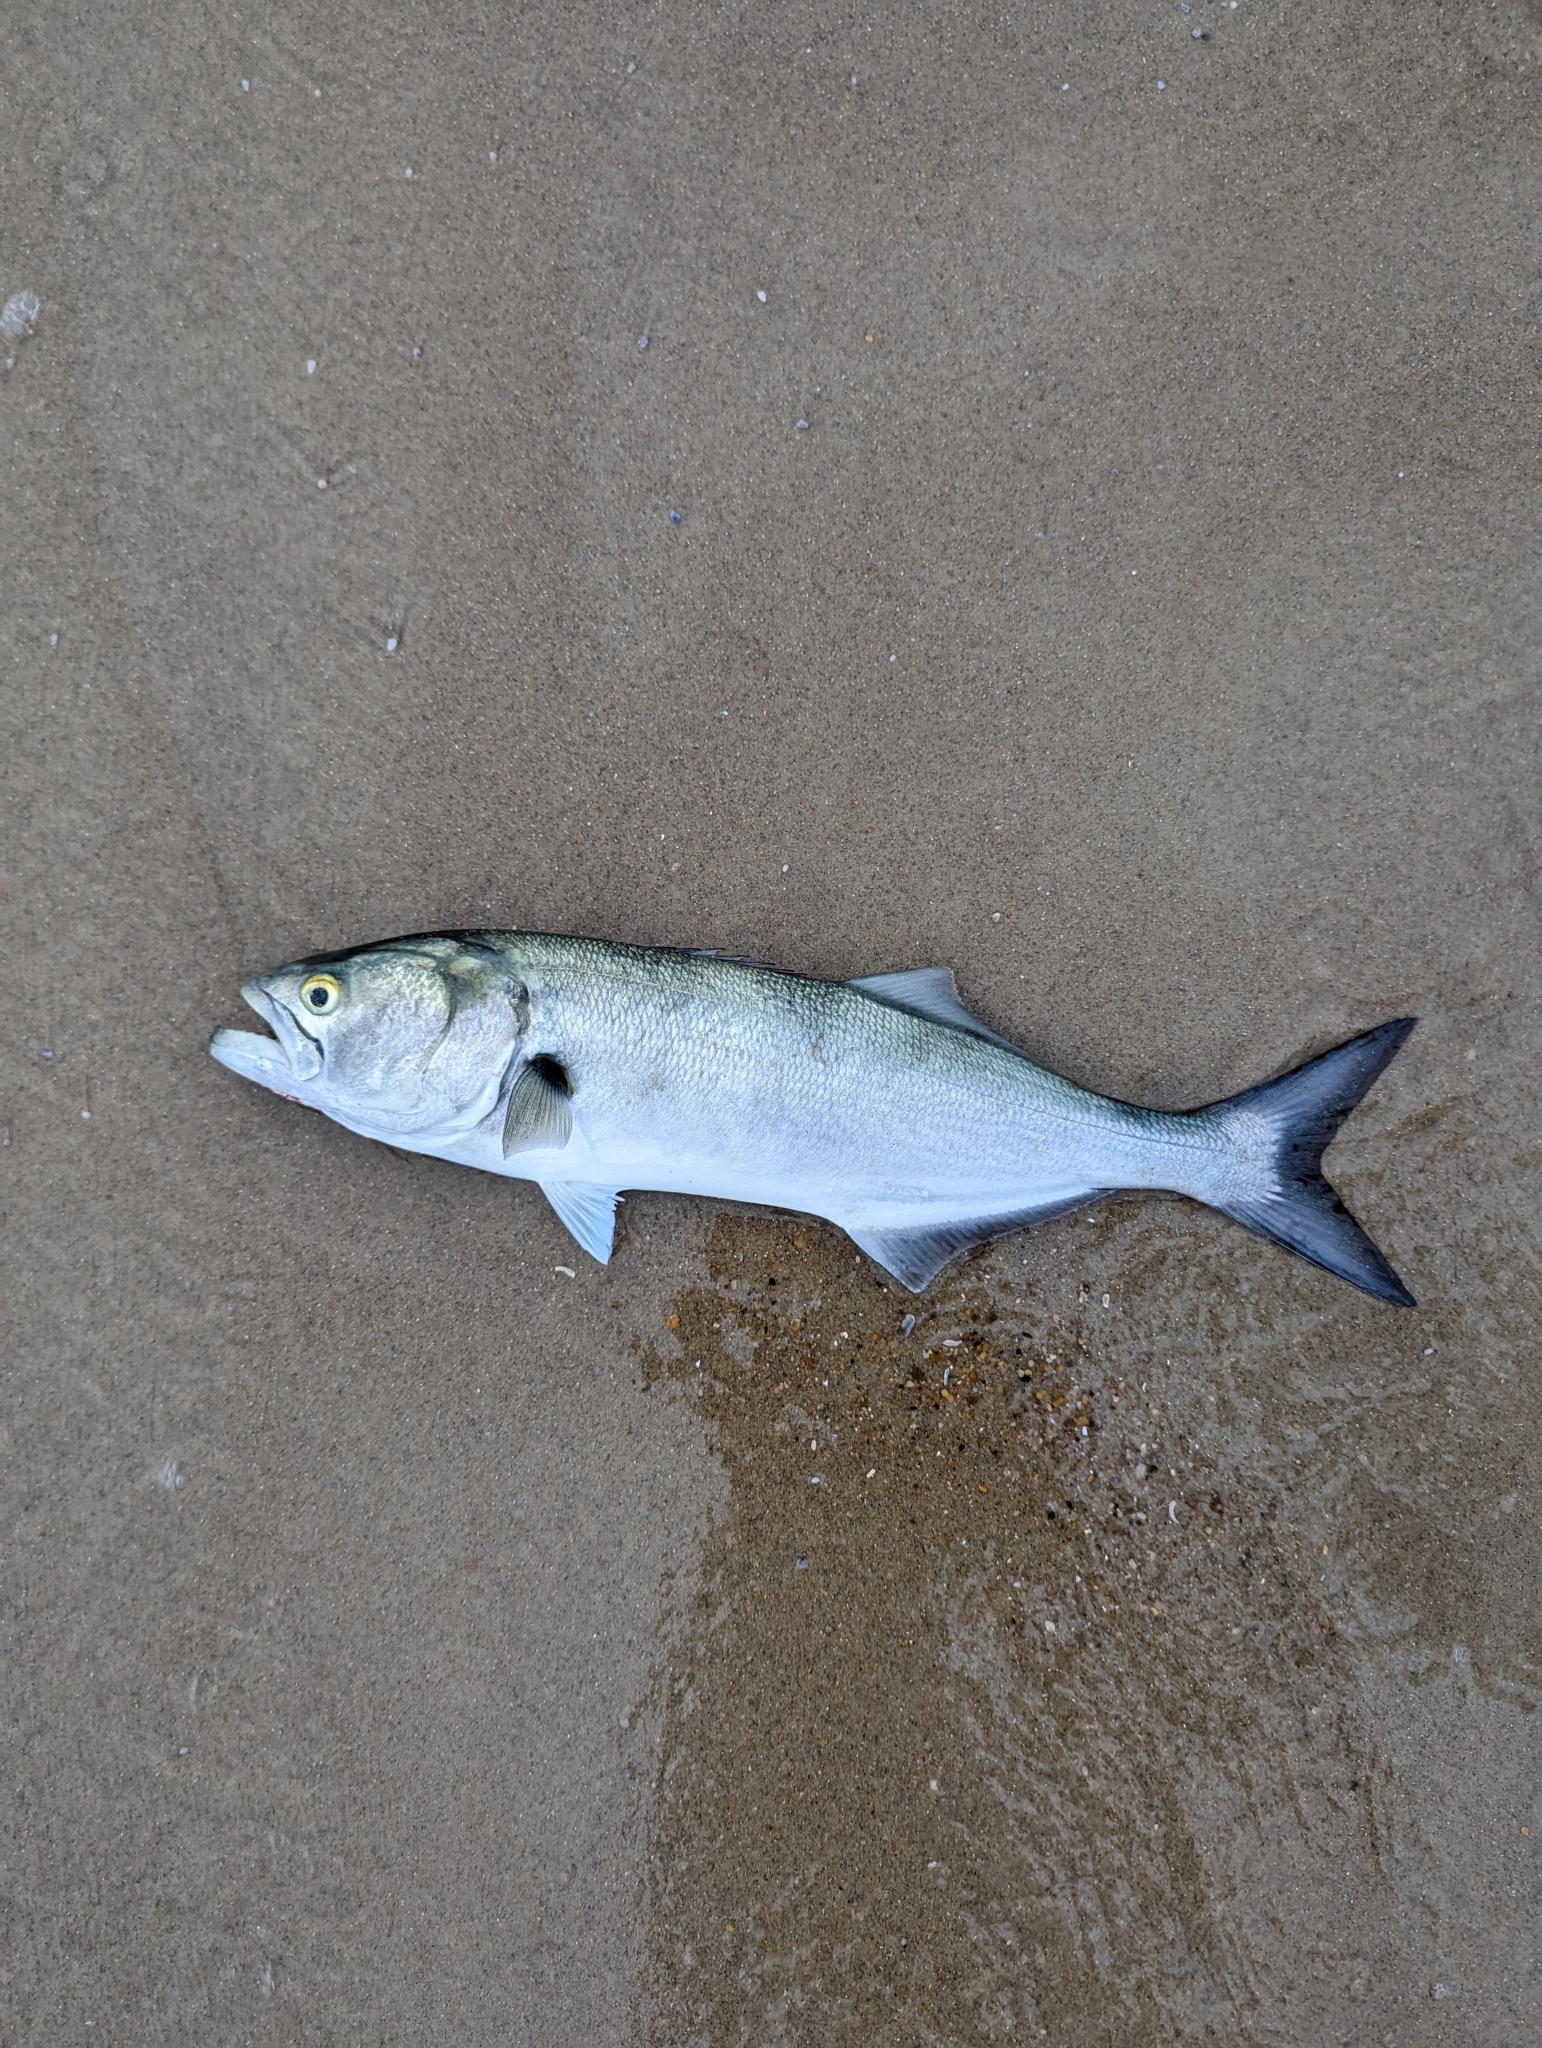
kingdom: Animalia
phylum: Chordata
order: Perciformes
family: Pomatomidae
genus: Pomatomus
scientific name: Pomatomus saltatrix
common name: Bluefish
